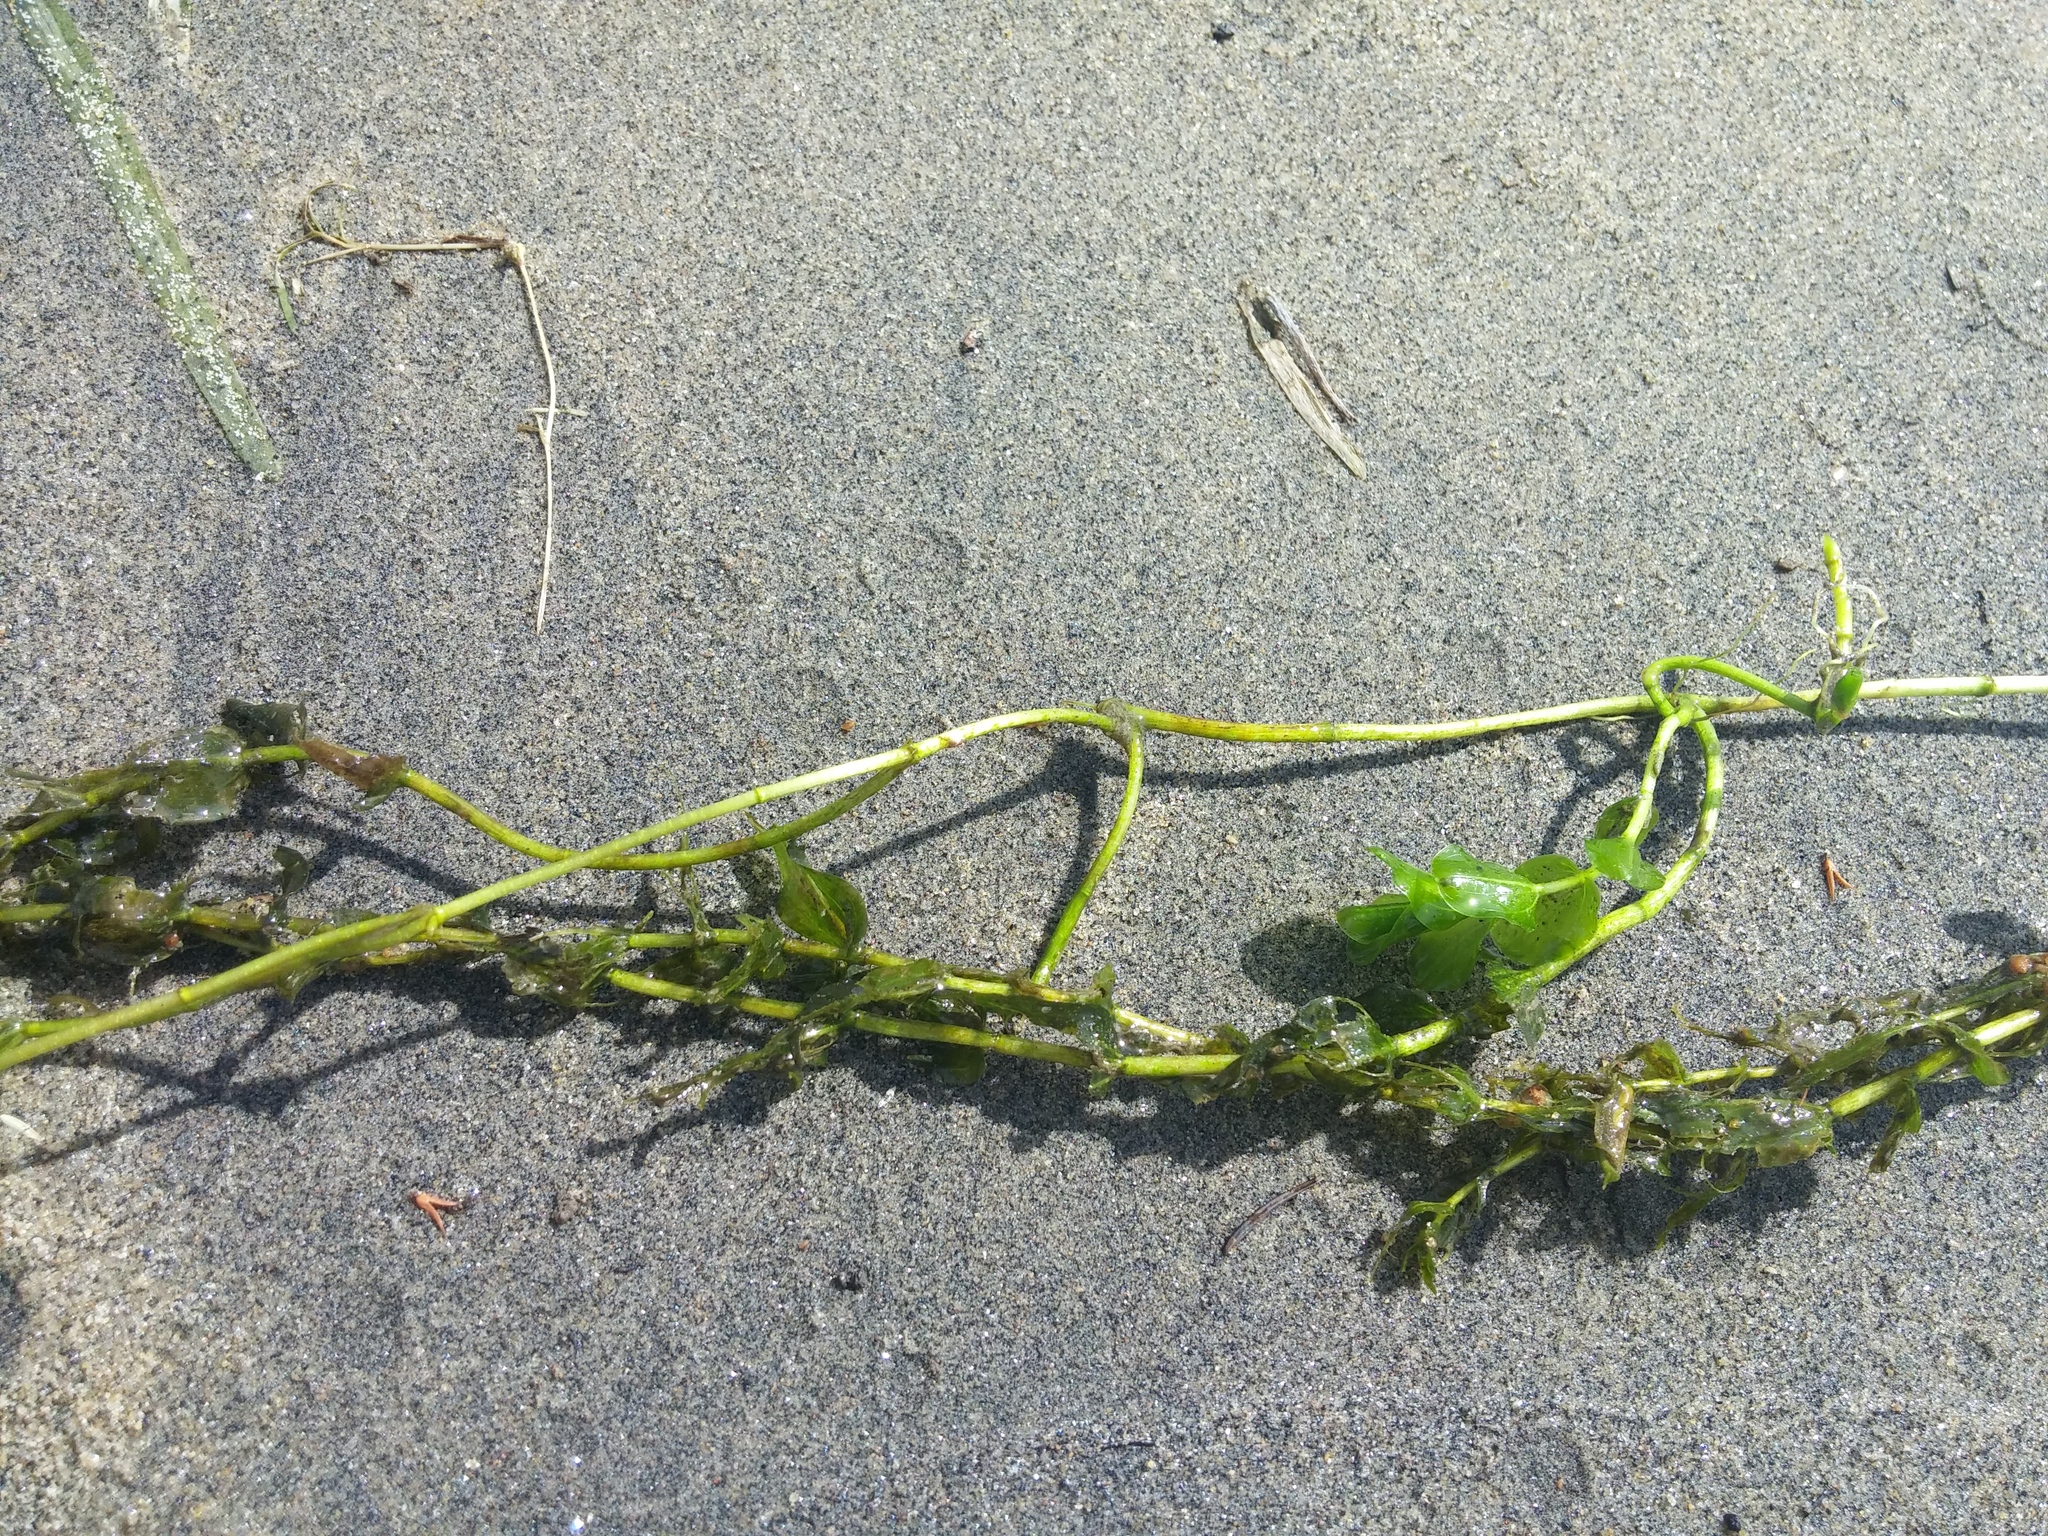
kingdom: Plantae
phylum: Tracheophyta
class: Liliopsida
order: Alismatales
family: Potamogetonaceae
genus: Potamogeton
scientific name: Potamogeton perfoliatus
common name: Perfoliate pondweed
